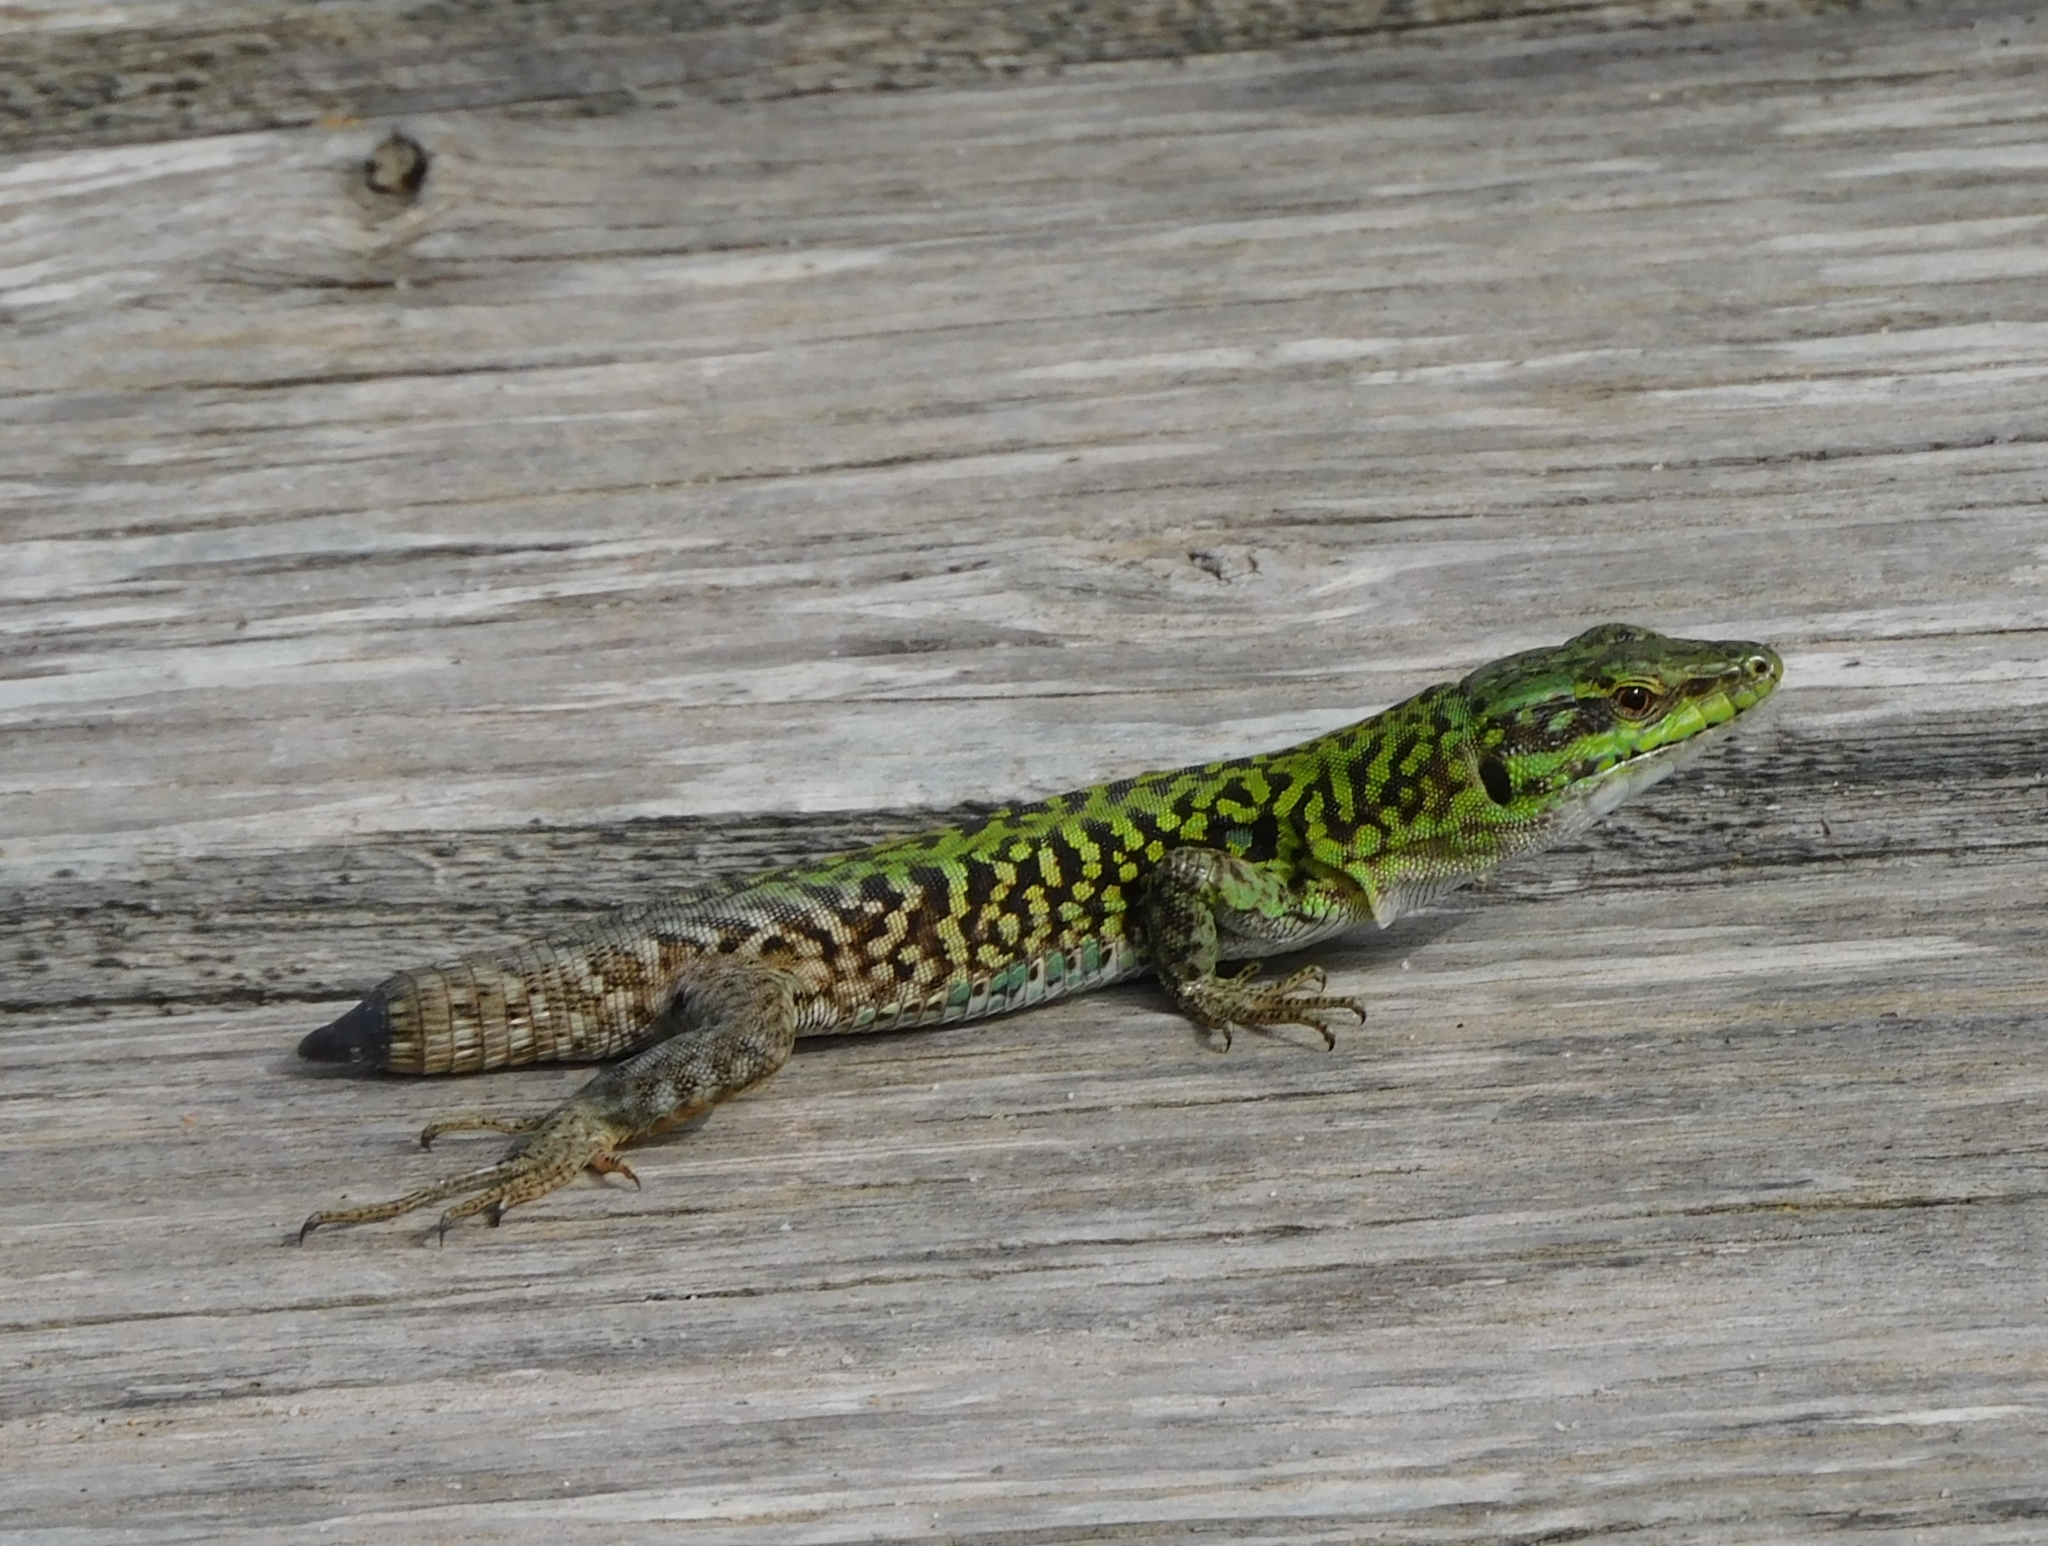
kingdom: Animalia
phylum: Chordata
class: Squamata
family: Lacertidae
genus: Podarcis
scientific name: Podarcis siculus
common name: Italian wall lizard
